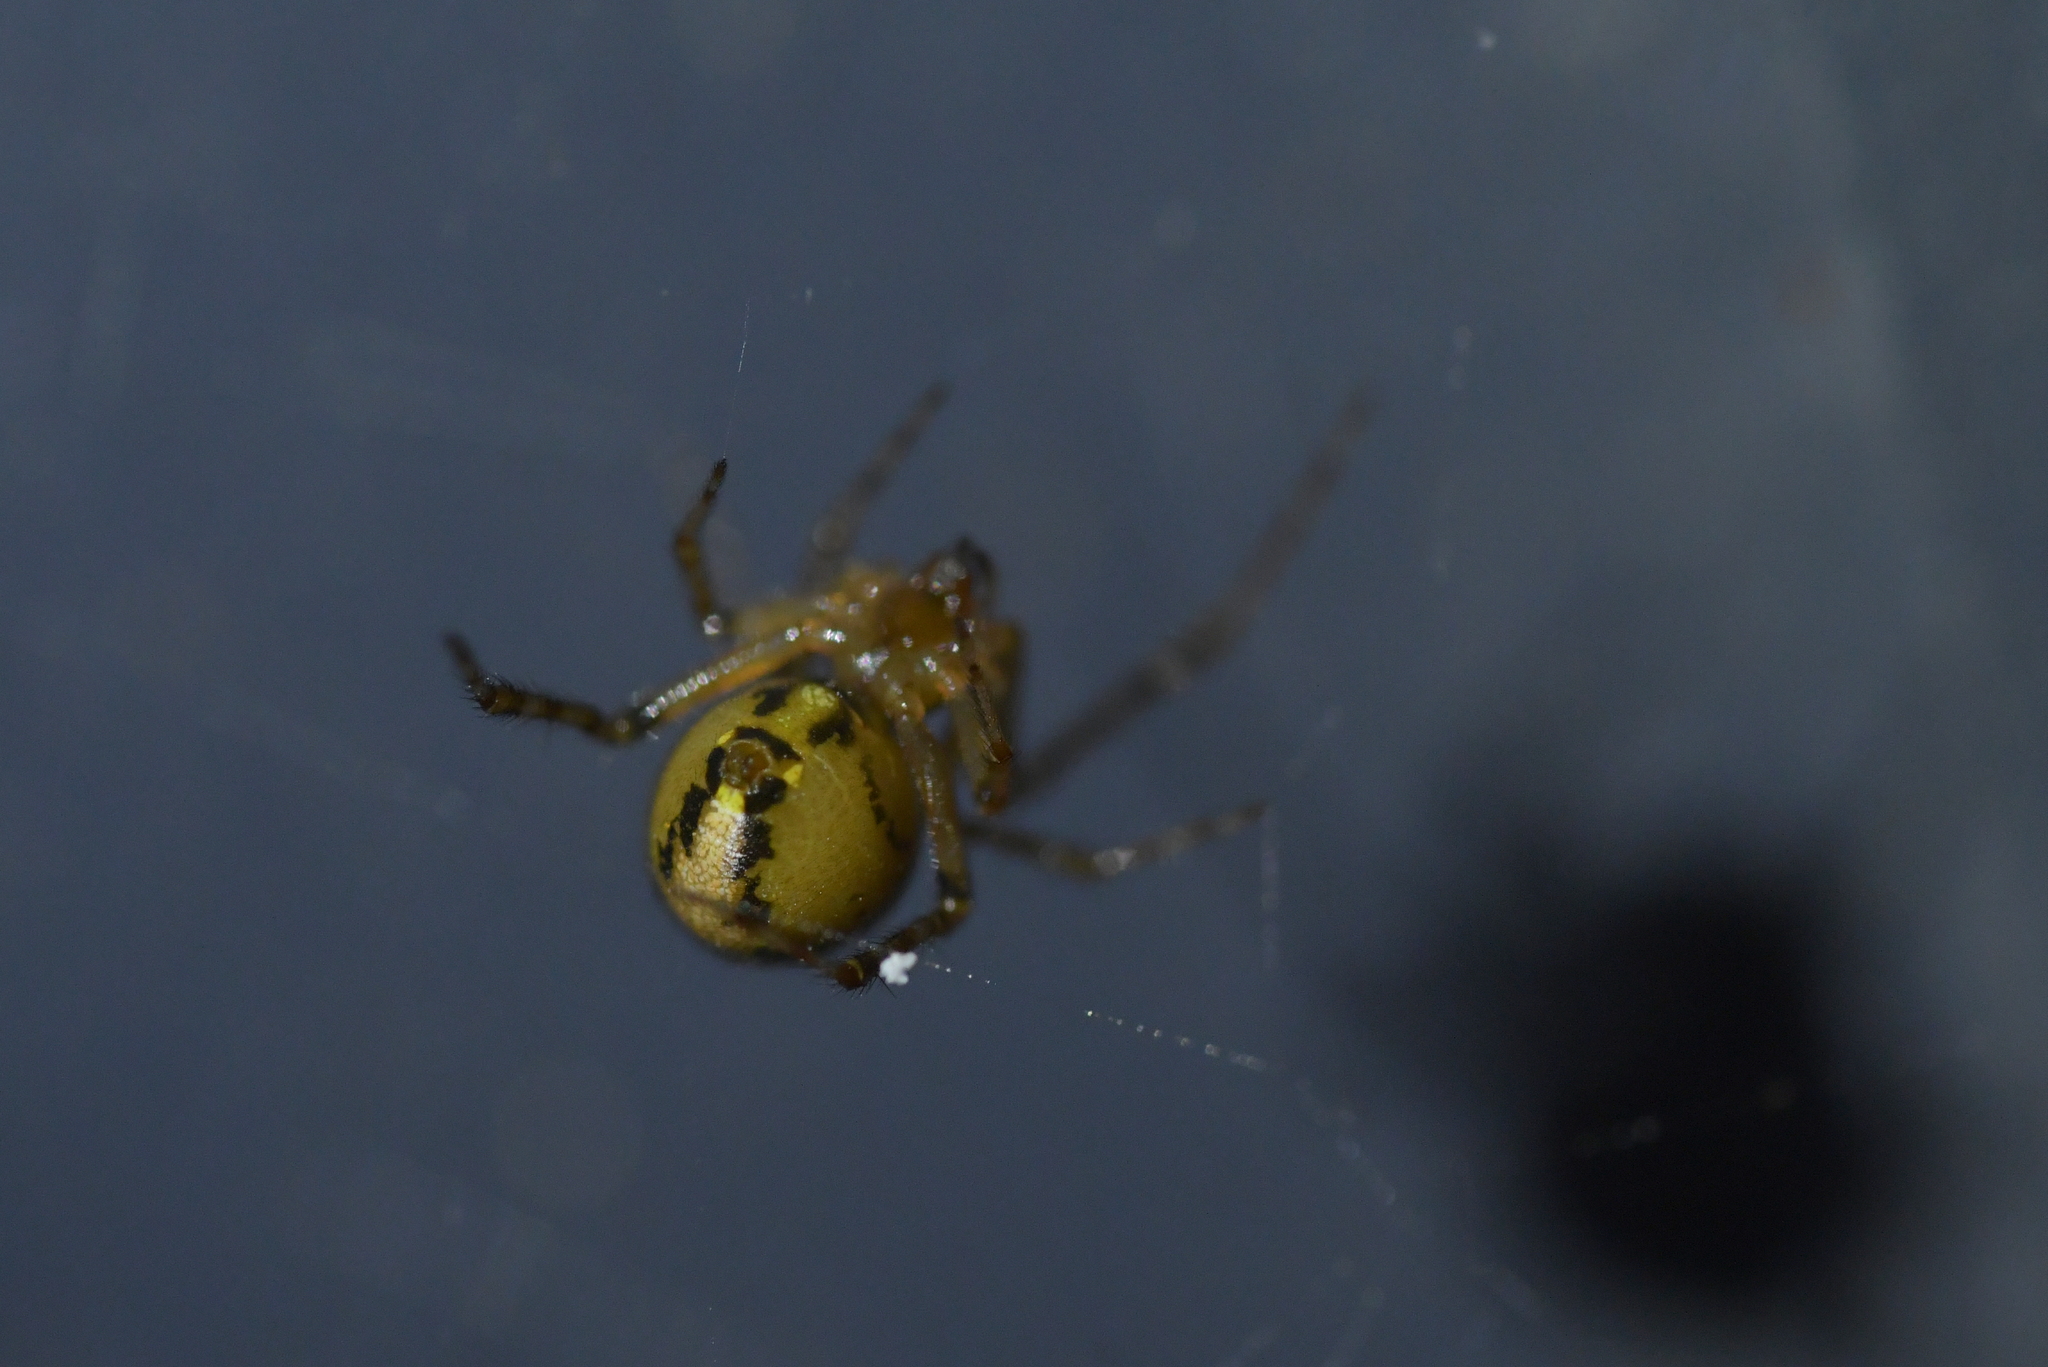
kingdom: Animalia
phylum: Arthropoda
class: Arachnida
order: Araneae
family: Theridiidae
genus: Cryptachaea
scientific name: Cryptachaea veruculata
